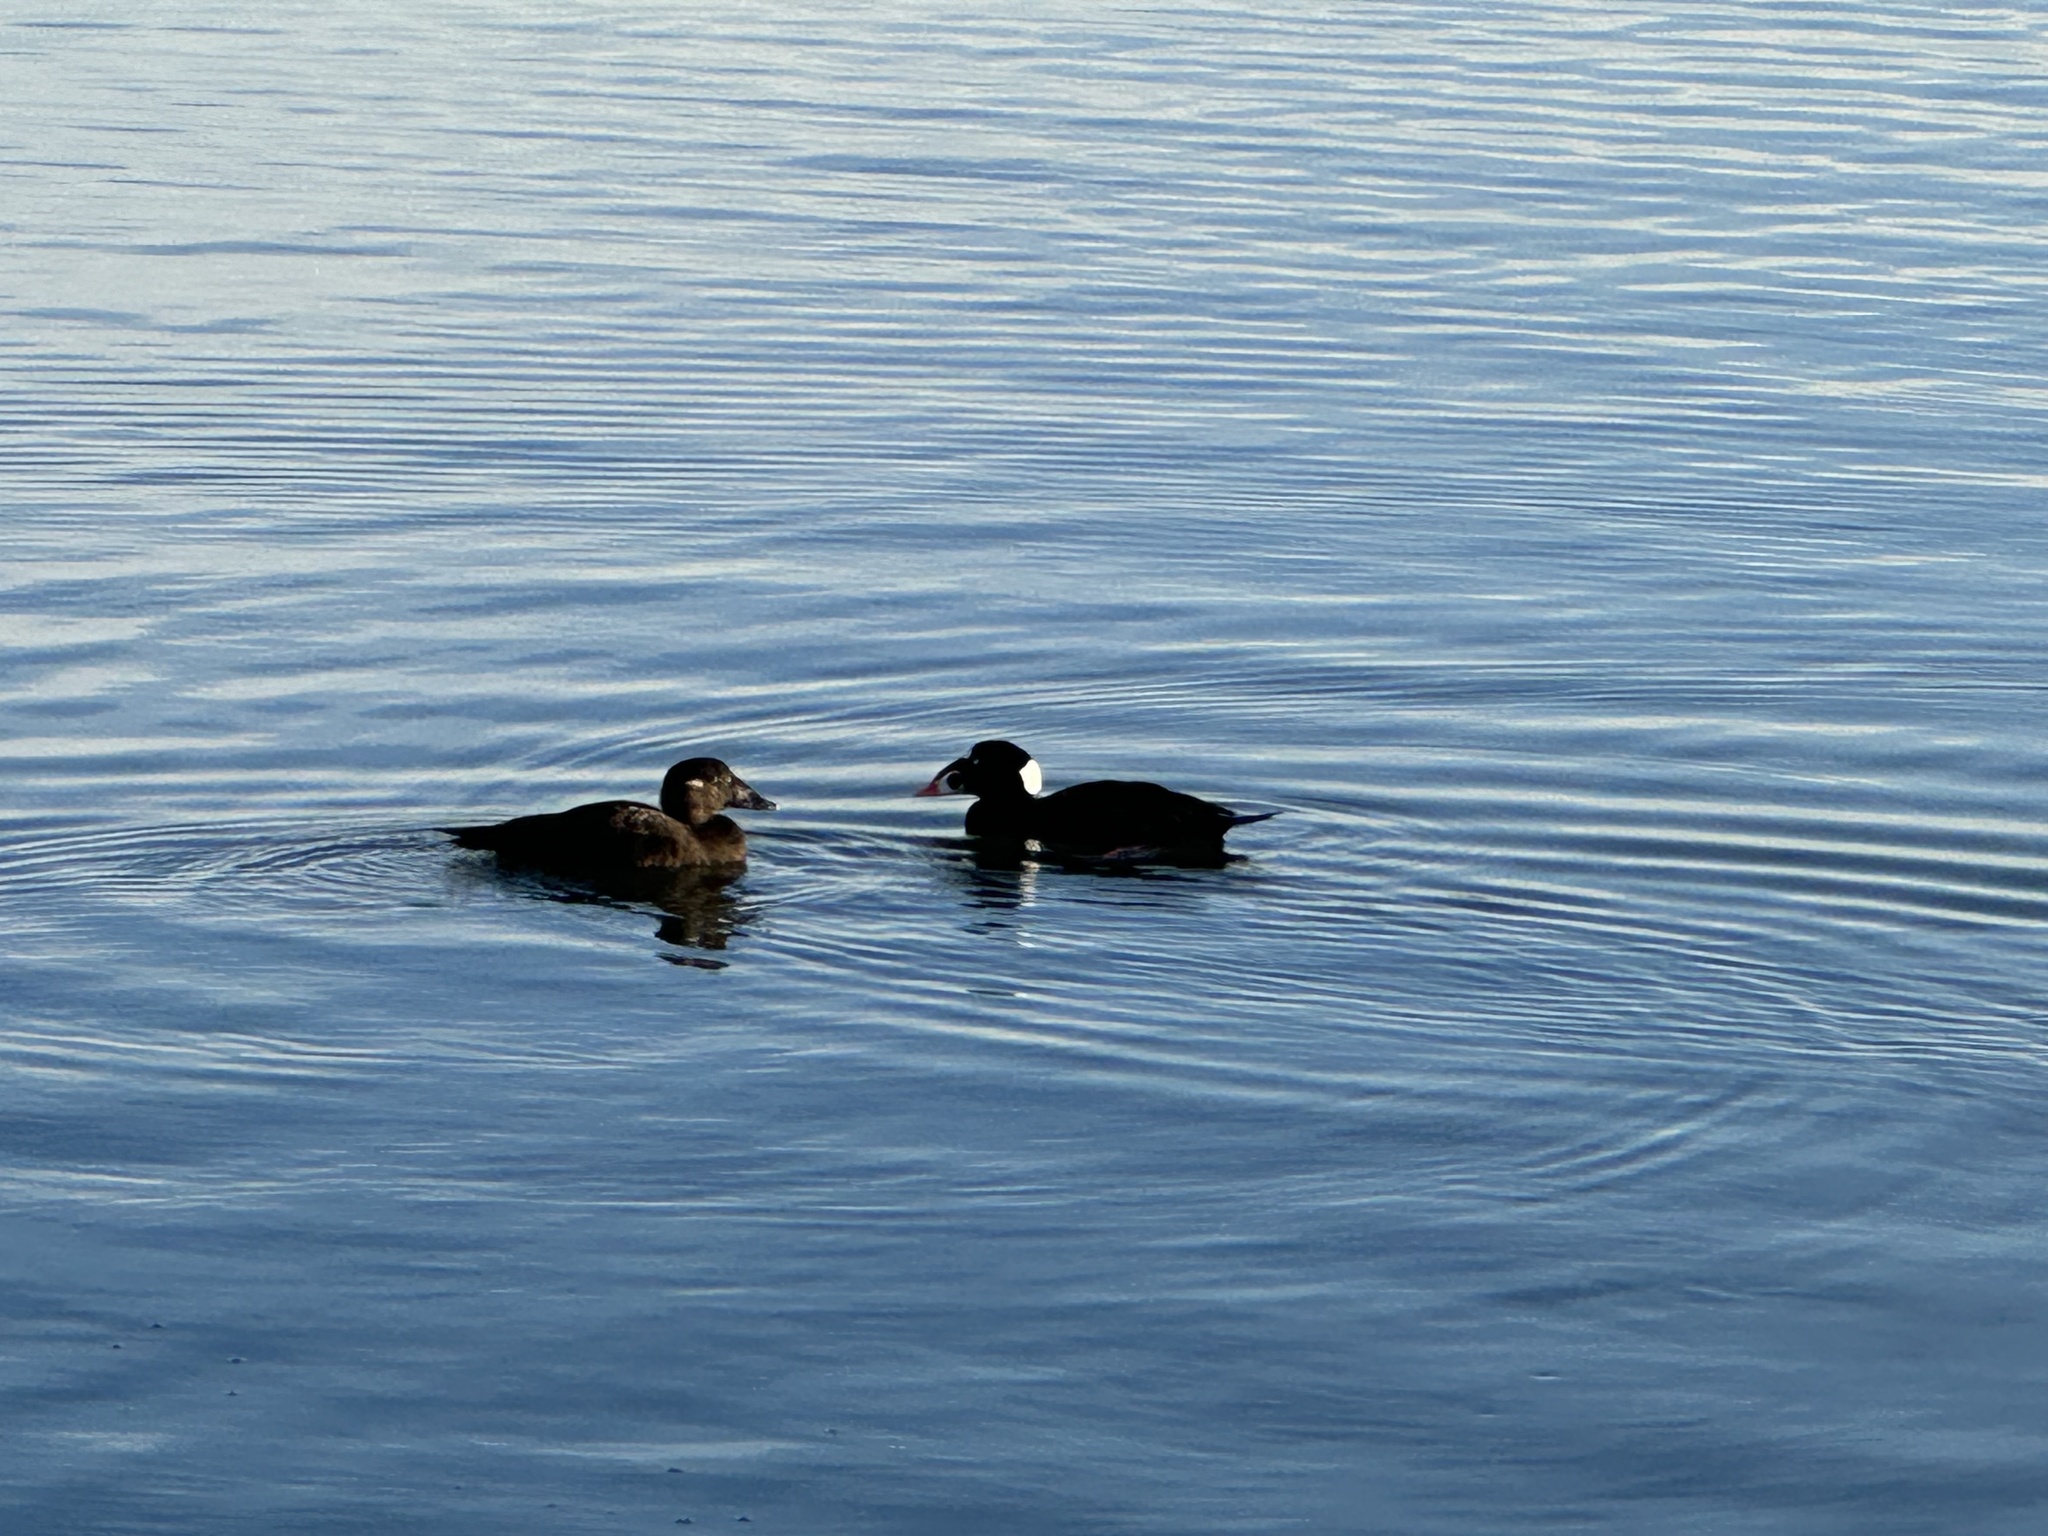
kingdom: Animalia
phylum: Chordata
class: Aves
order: Anseriformes
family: Anatidae
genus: Melanitta
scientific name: Melanitta perspicillata
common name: Surf scoter
